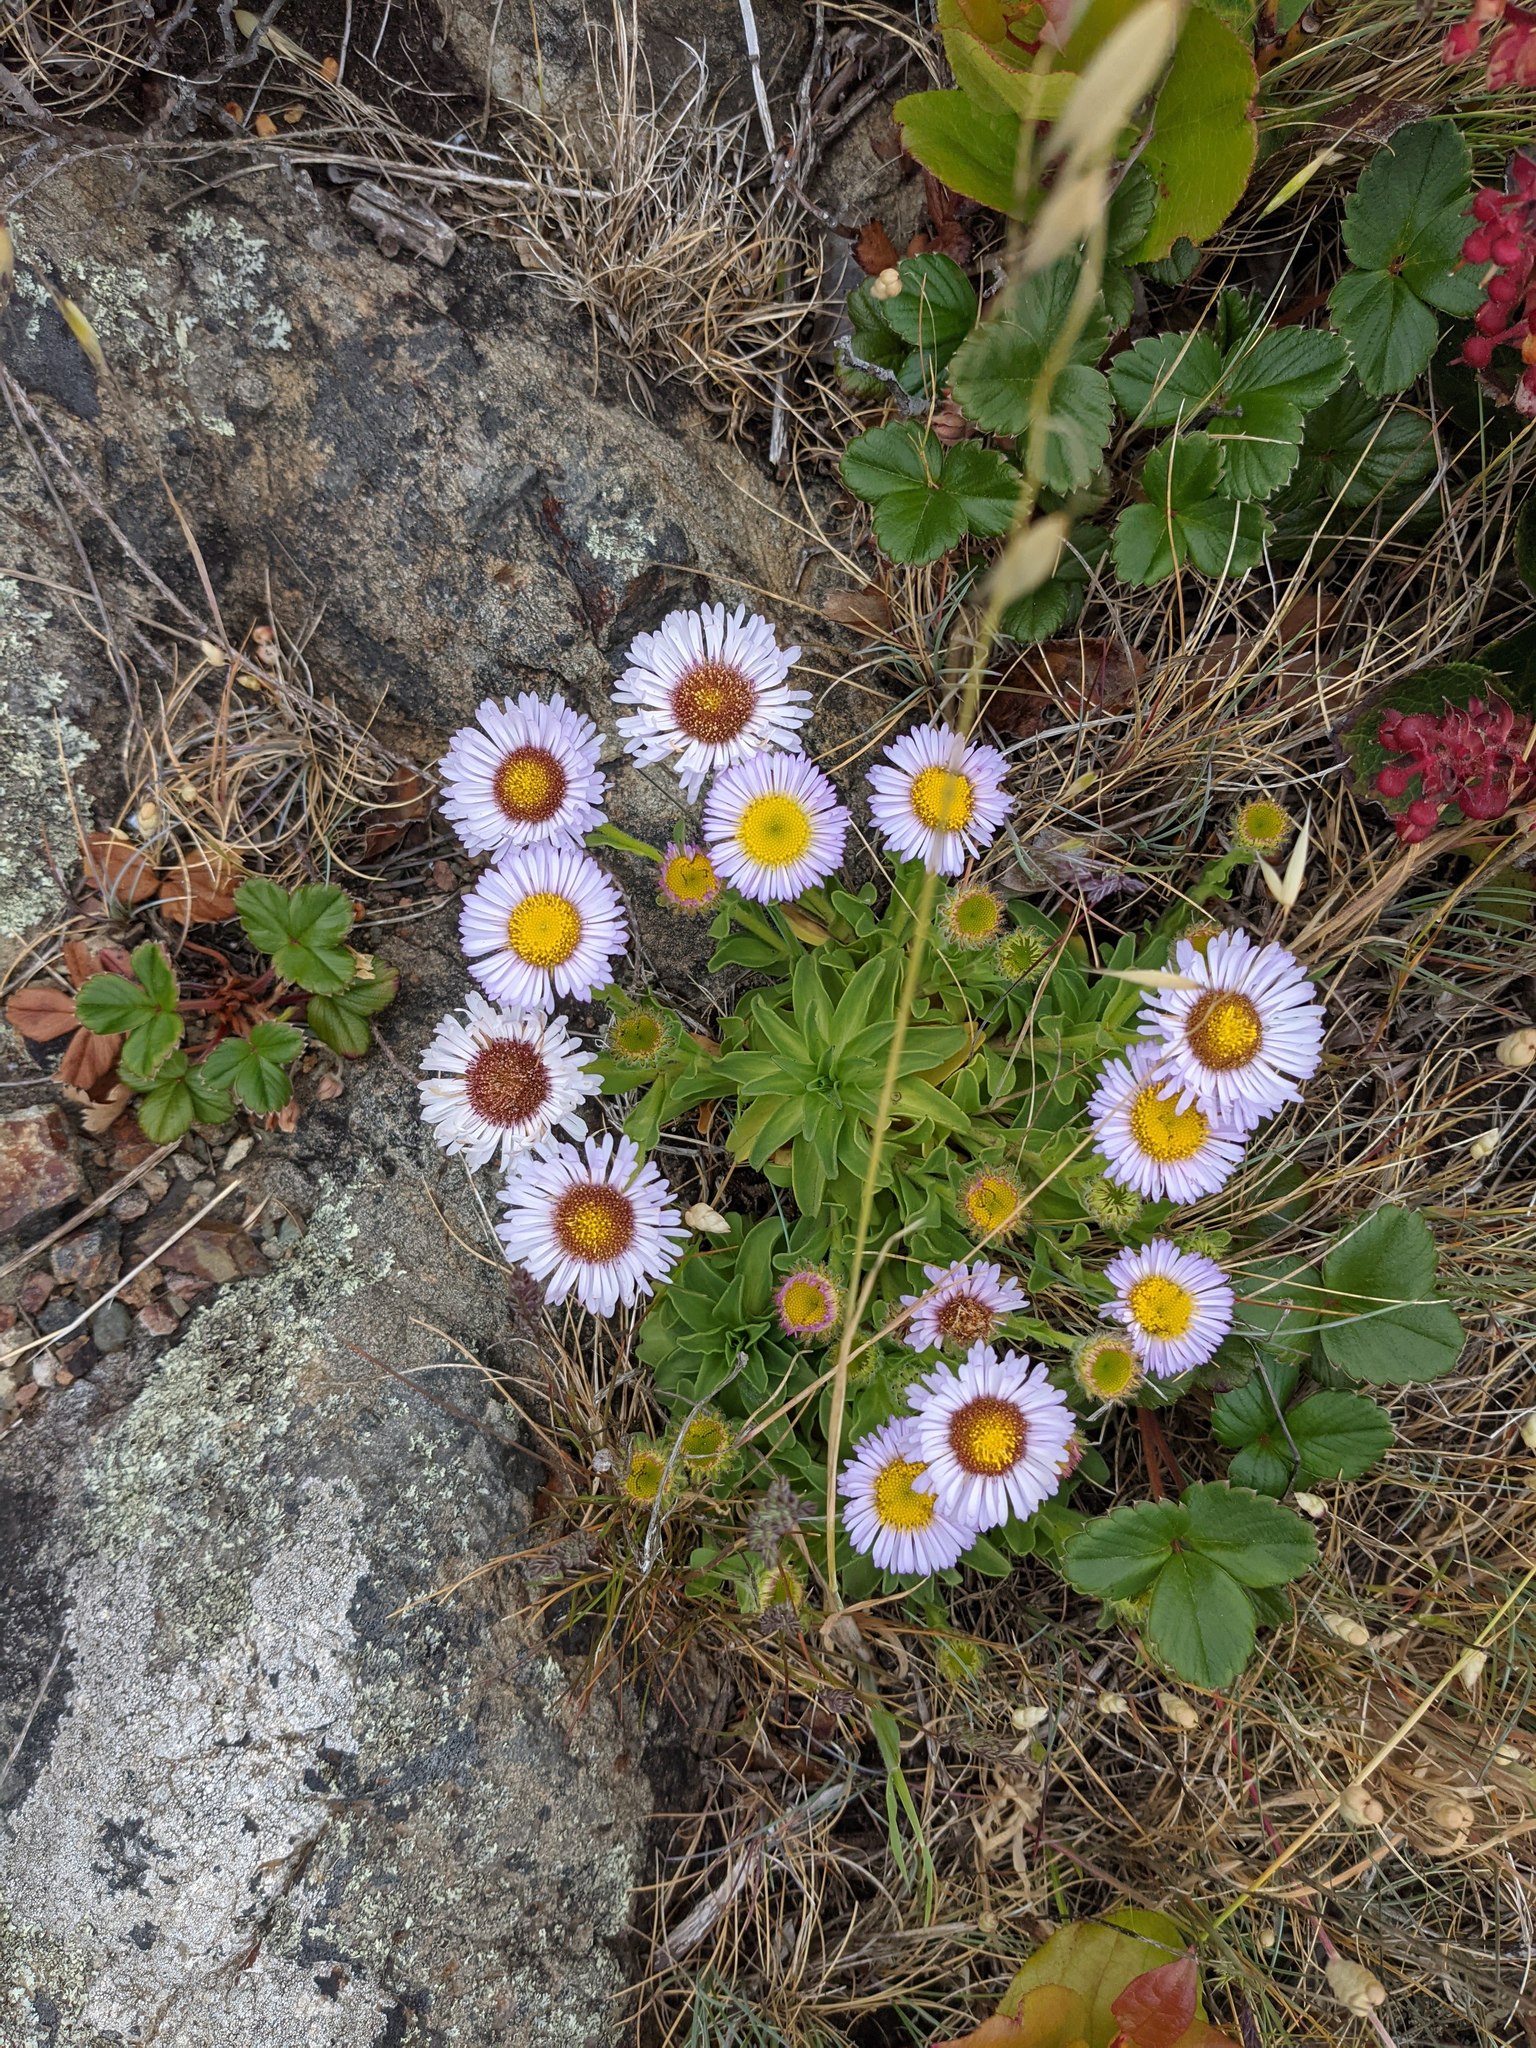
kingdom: Plantae
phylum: Tracheophyta
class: Magnoliopsida
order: Asterales
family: Asteraceae
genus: Erigeron
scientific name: Erigeron glaucus
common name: Seaside daisy
